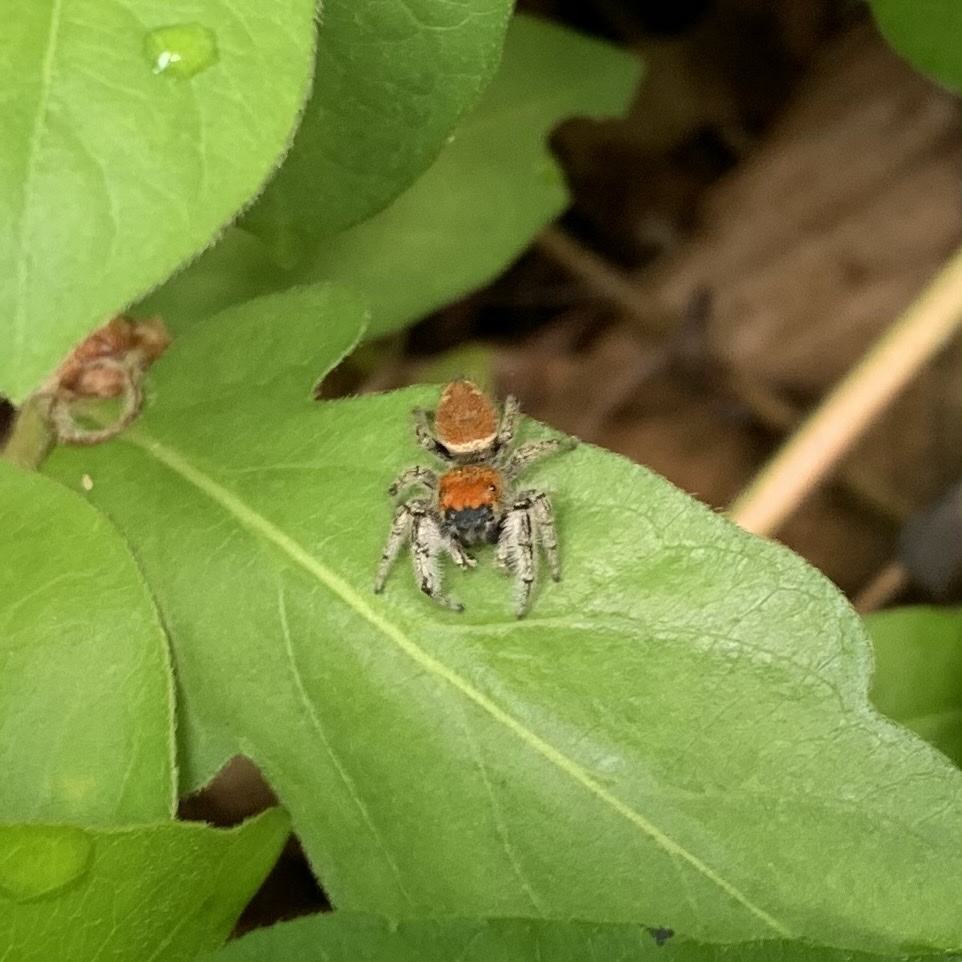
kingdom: Animalia
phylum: Arthropoda
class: Arachnida
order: Araneae
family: Salticidae
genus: Phidippus
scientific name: Phidippus whitmani
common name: Whitman's jumping spider
